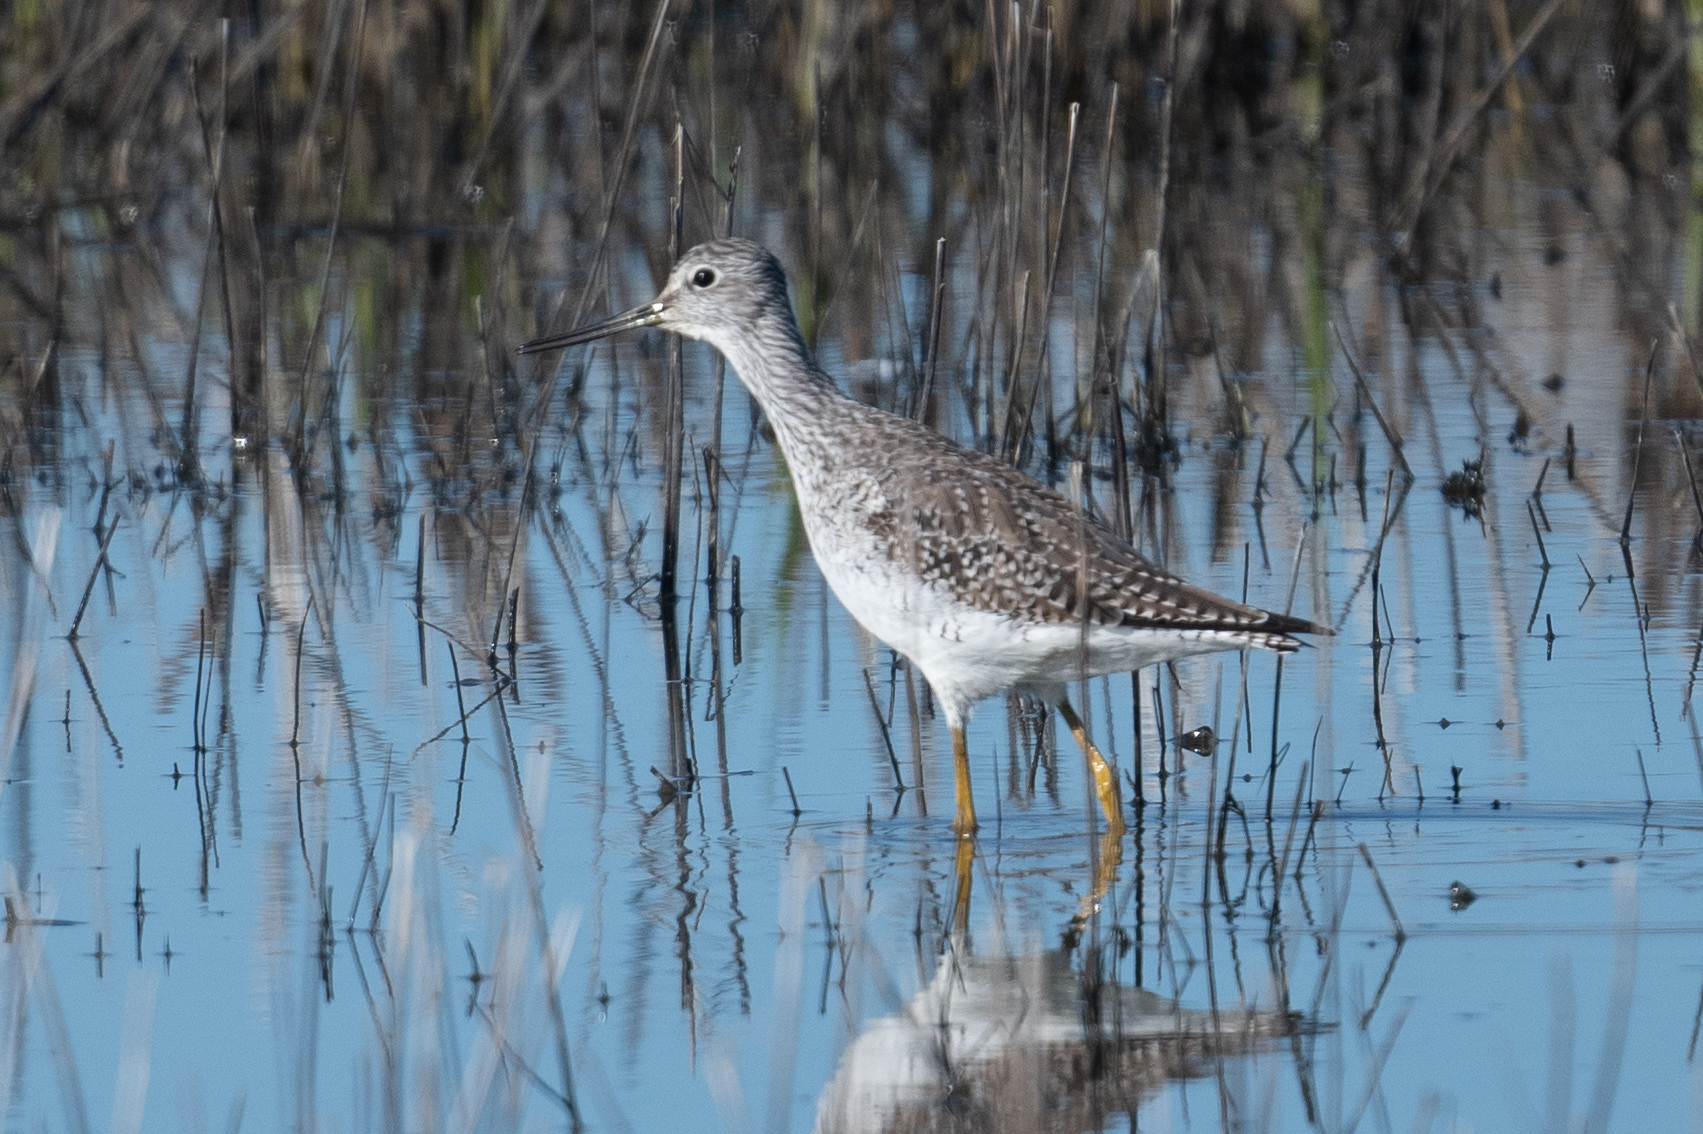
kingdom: Animalia
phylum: Chordata
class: Aves
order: Charadriiformes
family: Scolopacidae
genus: Tringa
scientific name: Tringa melanoleuca
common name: Greater yellowlegs
